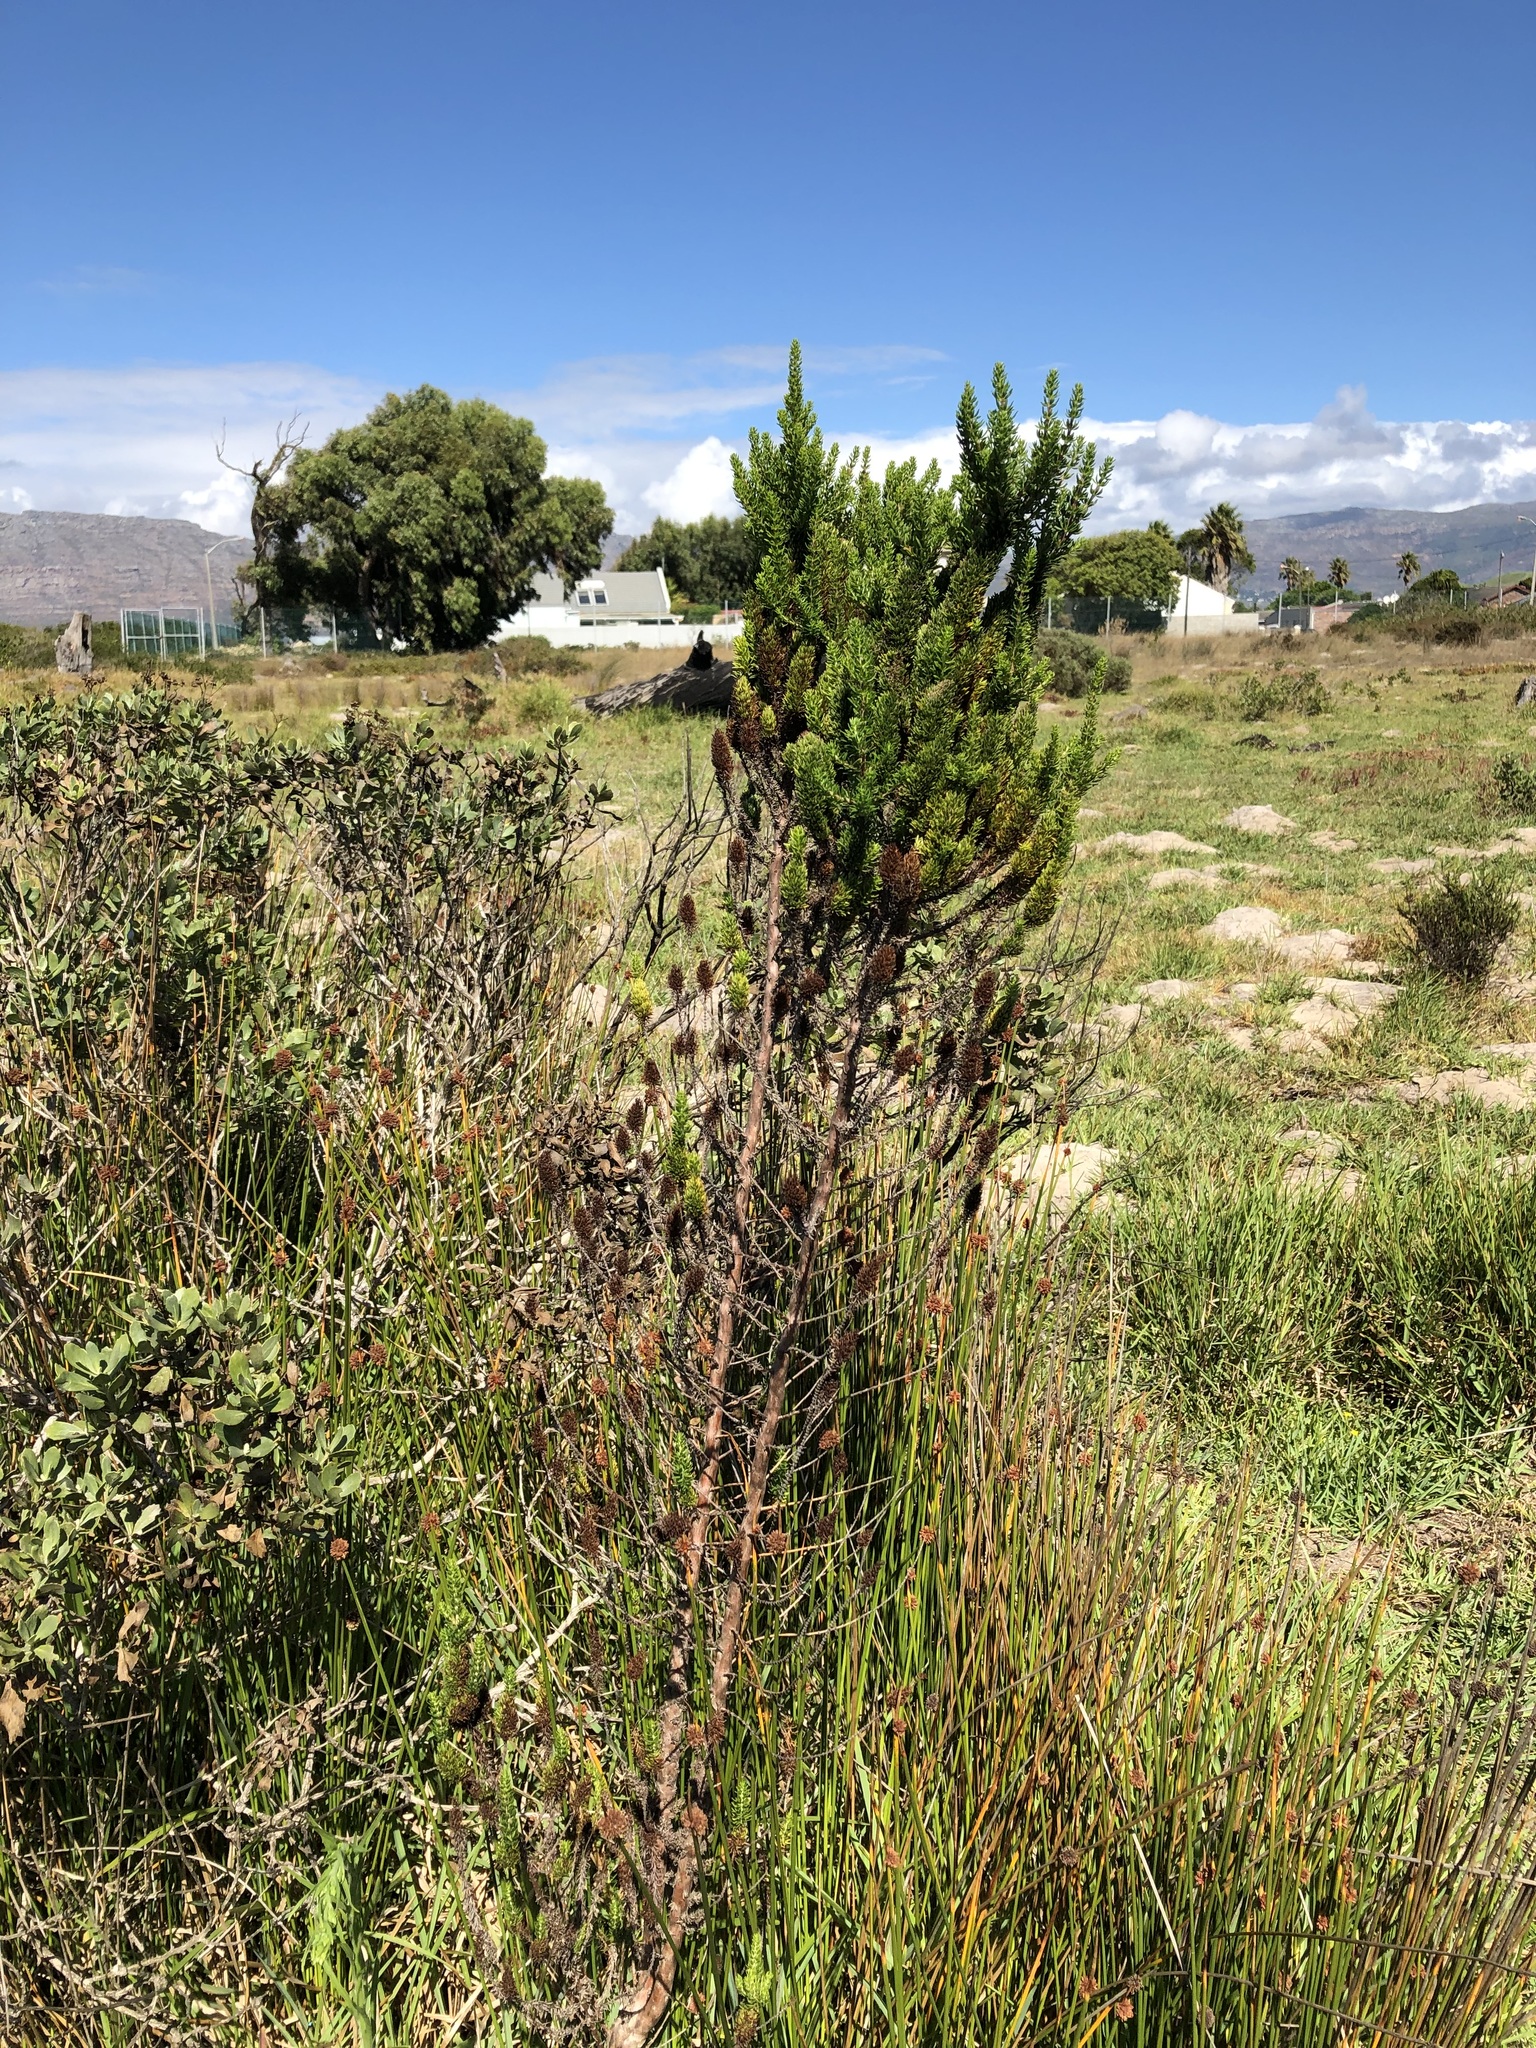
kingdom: Plantae
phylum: Tracheophyta
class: Magnoliopsida
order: Gentianales
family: Rubiaceae
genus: Anthospermum
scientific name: Anthospermum aethiopicum
